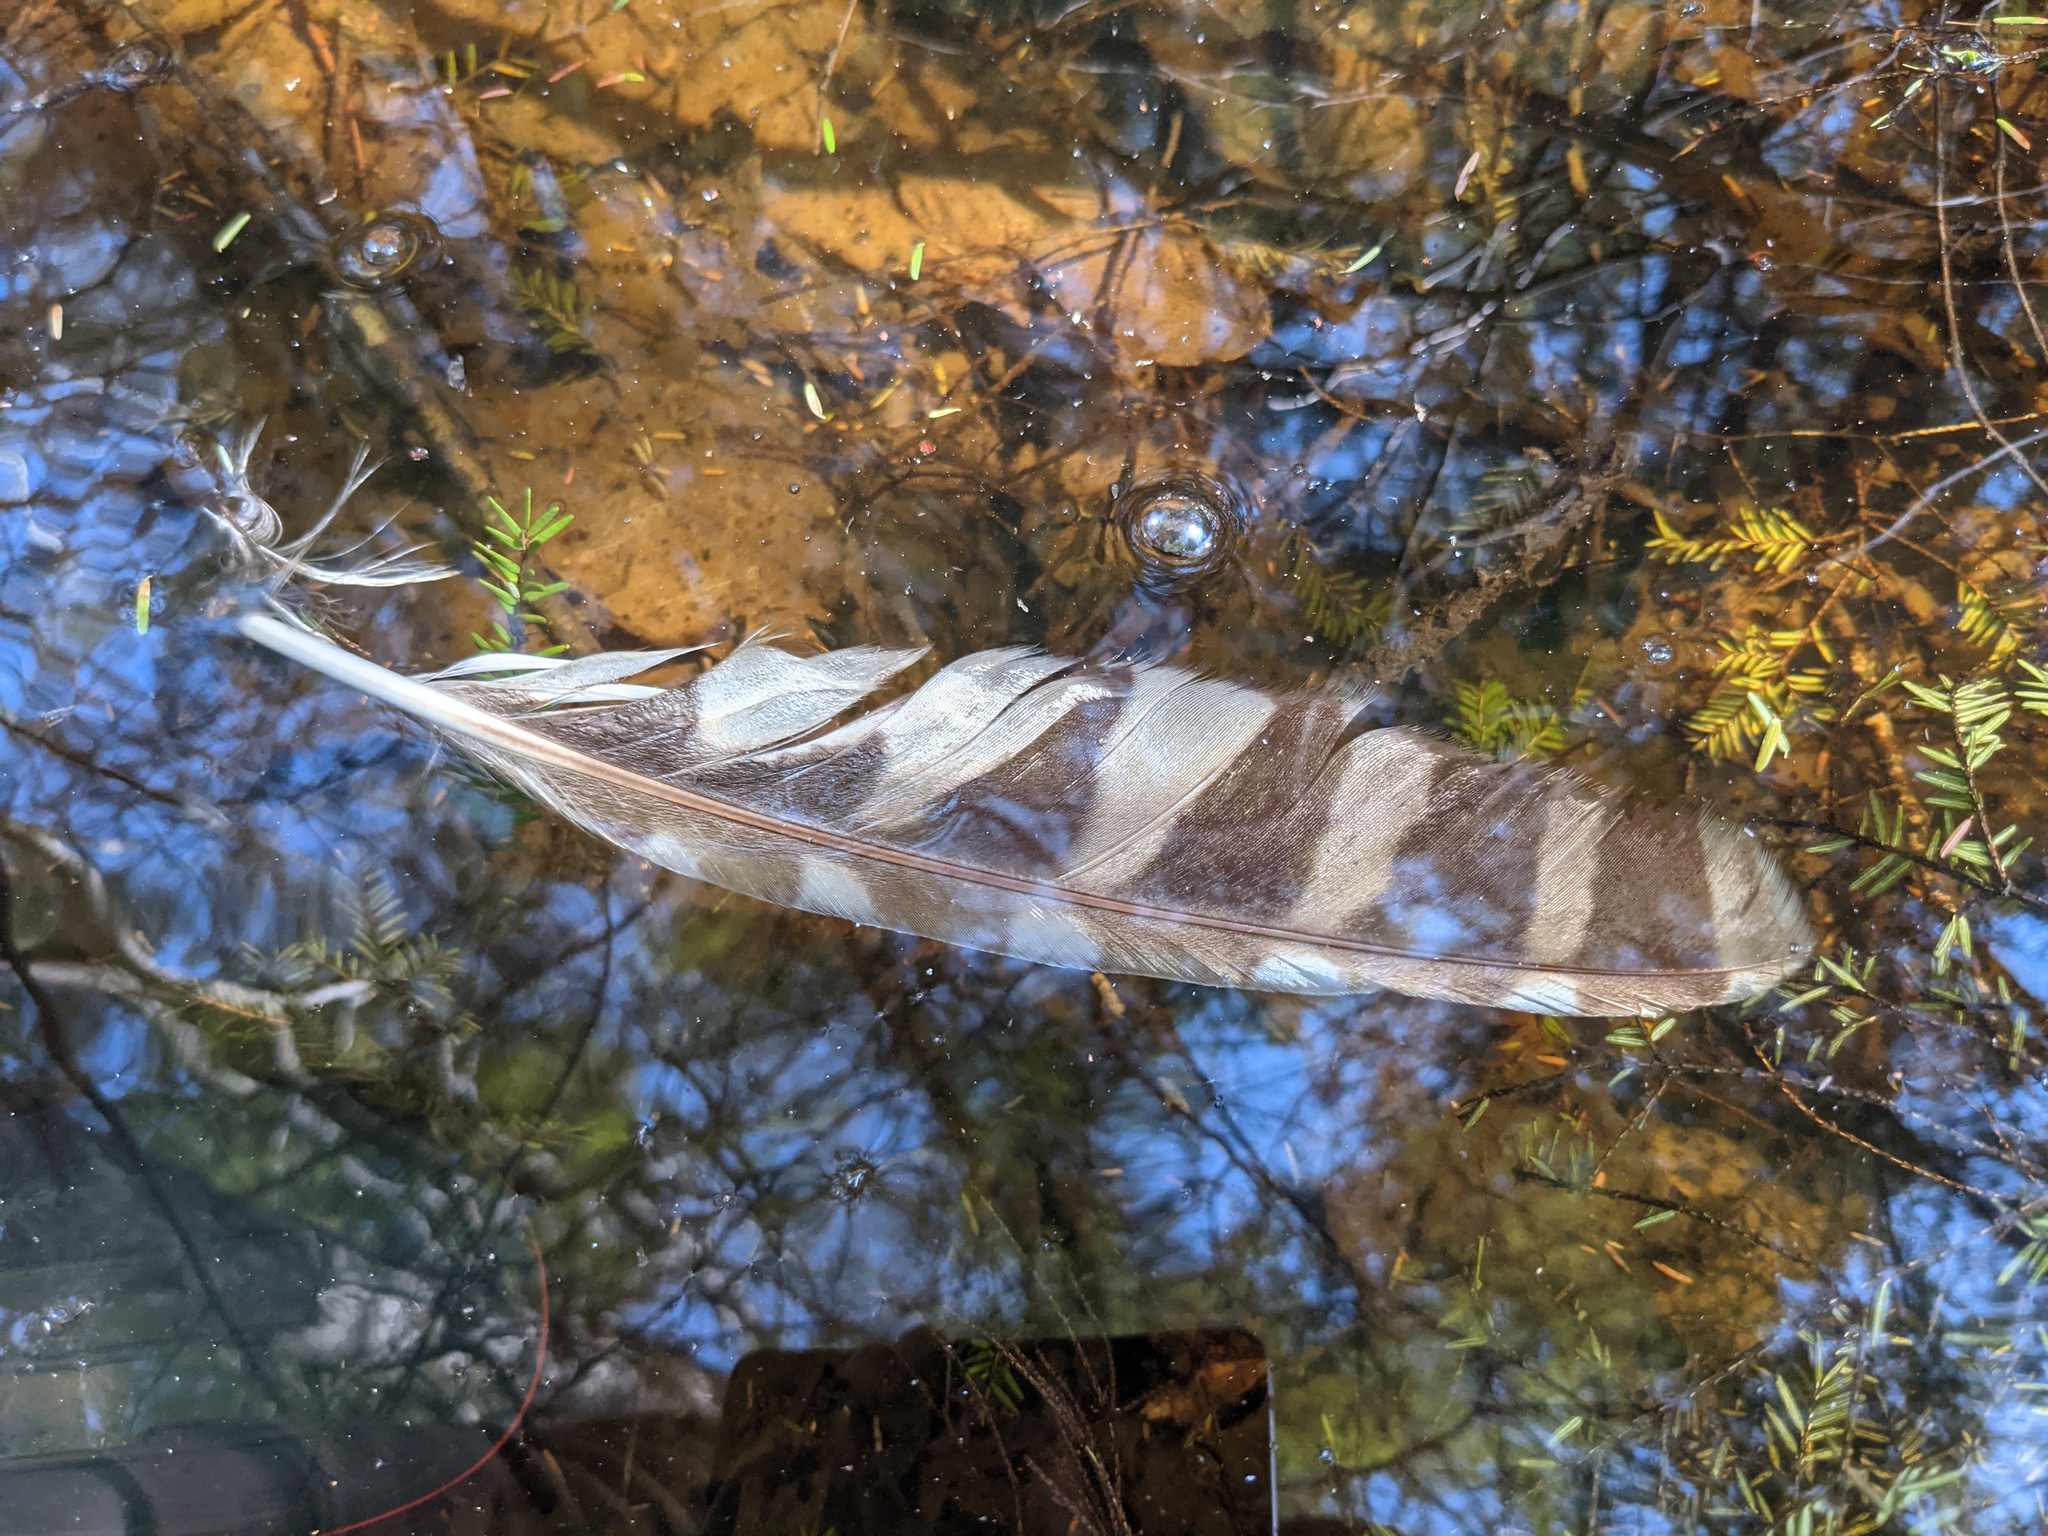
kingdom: Animalia
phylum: Chordata
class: Aves
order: Strigiformes
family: Strigidae
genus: Strix
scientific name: Strix varia
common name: Barred owl
